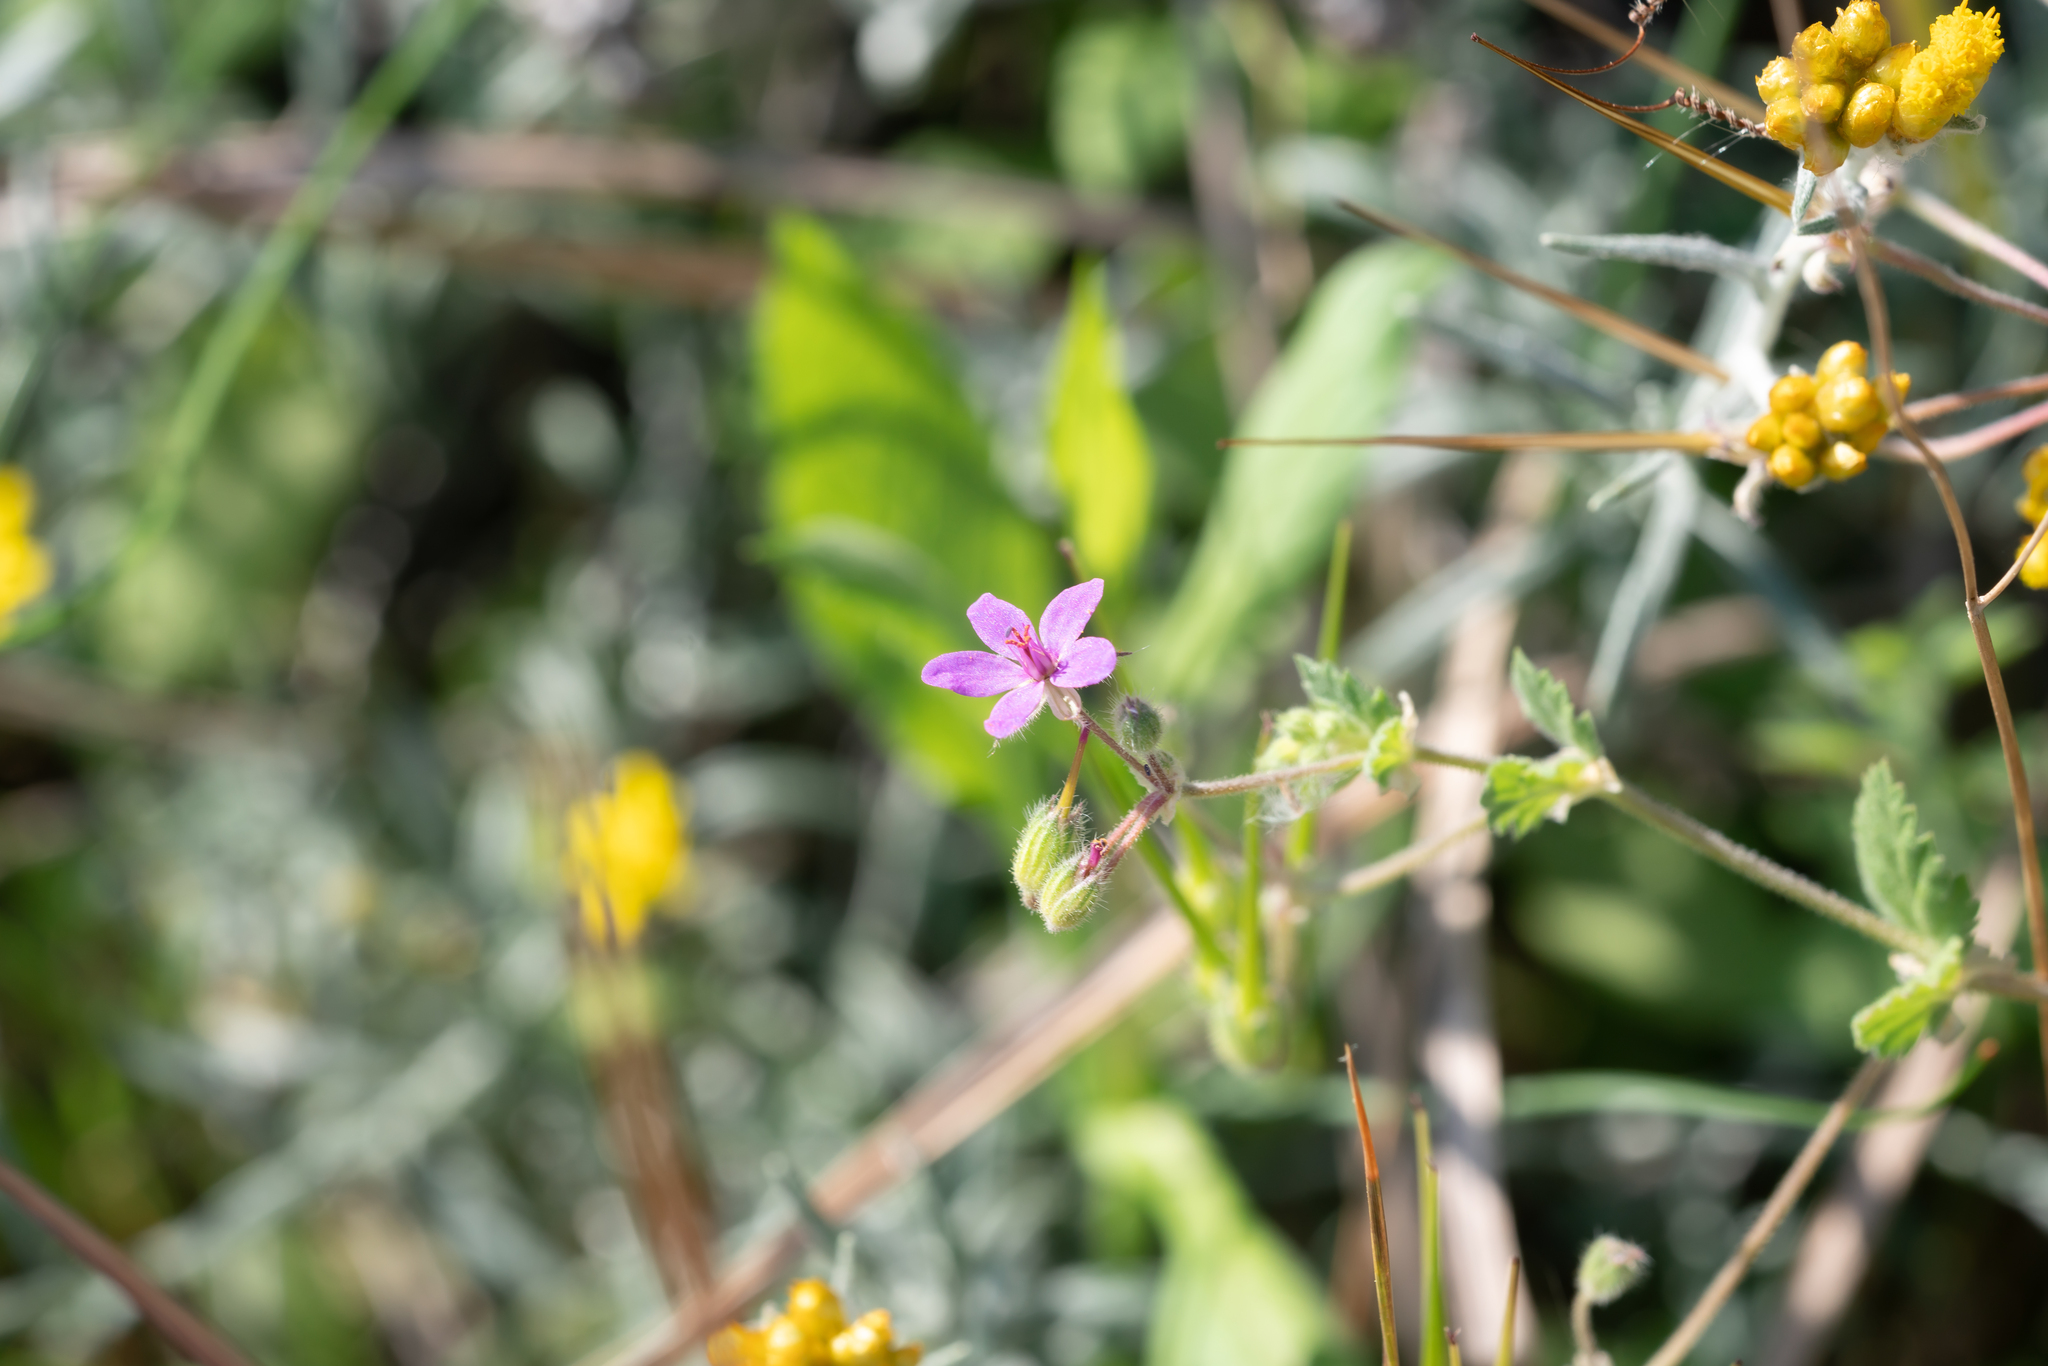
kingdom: Plantae
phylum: Tracheophyta
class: Magnoliopsida
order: Geraniales
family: Geraniaceae
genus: Erodium
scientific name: Erodium malacoides
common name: Soft stork's-bill
